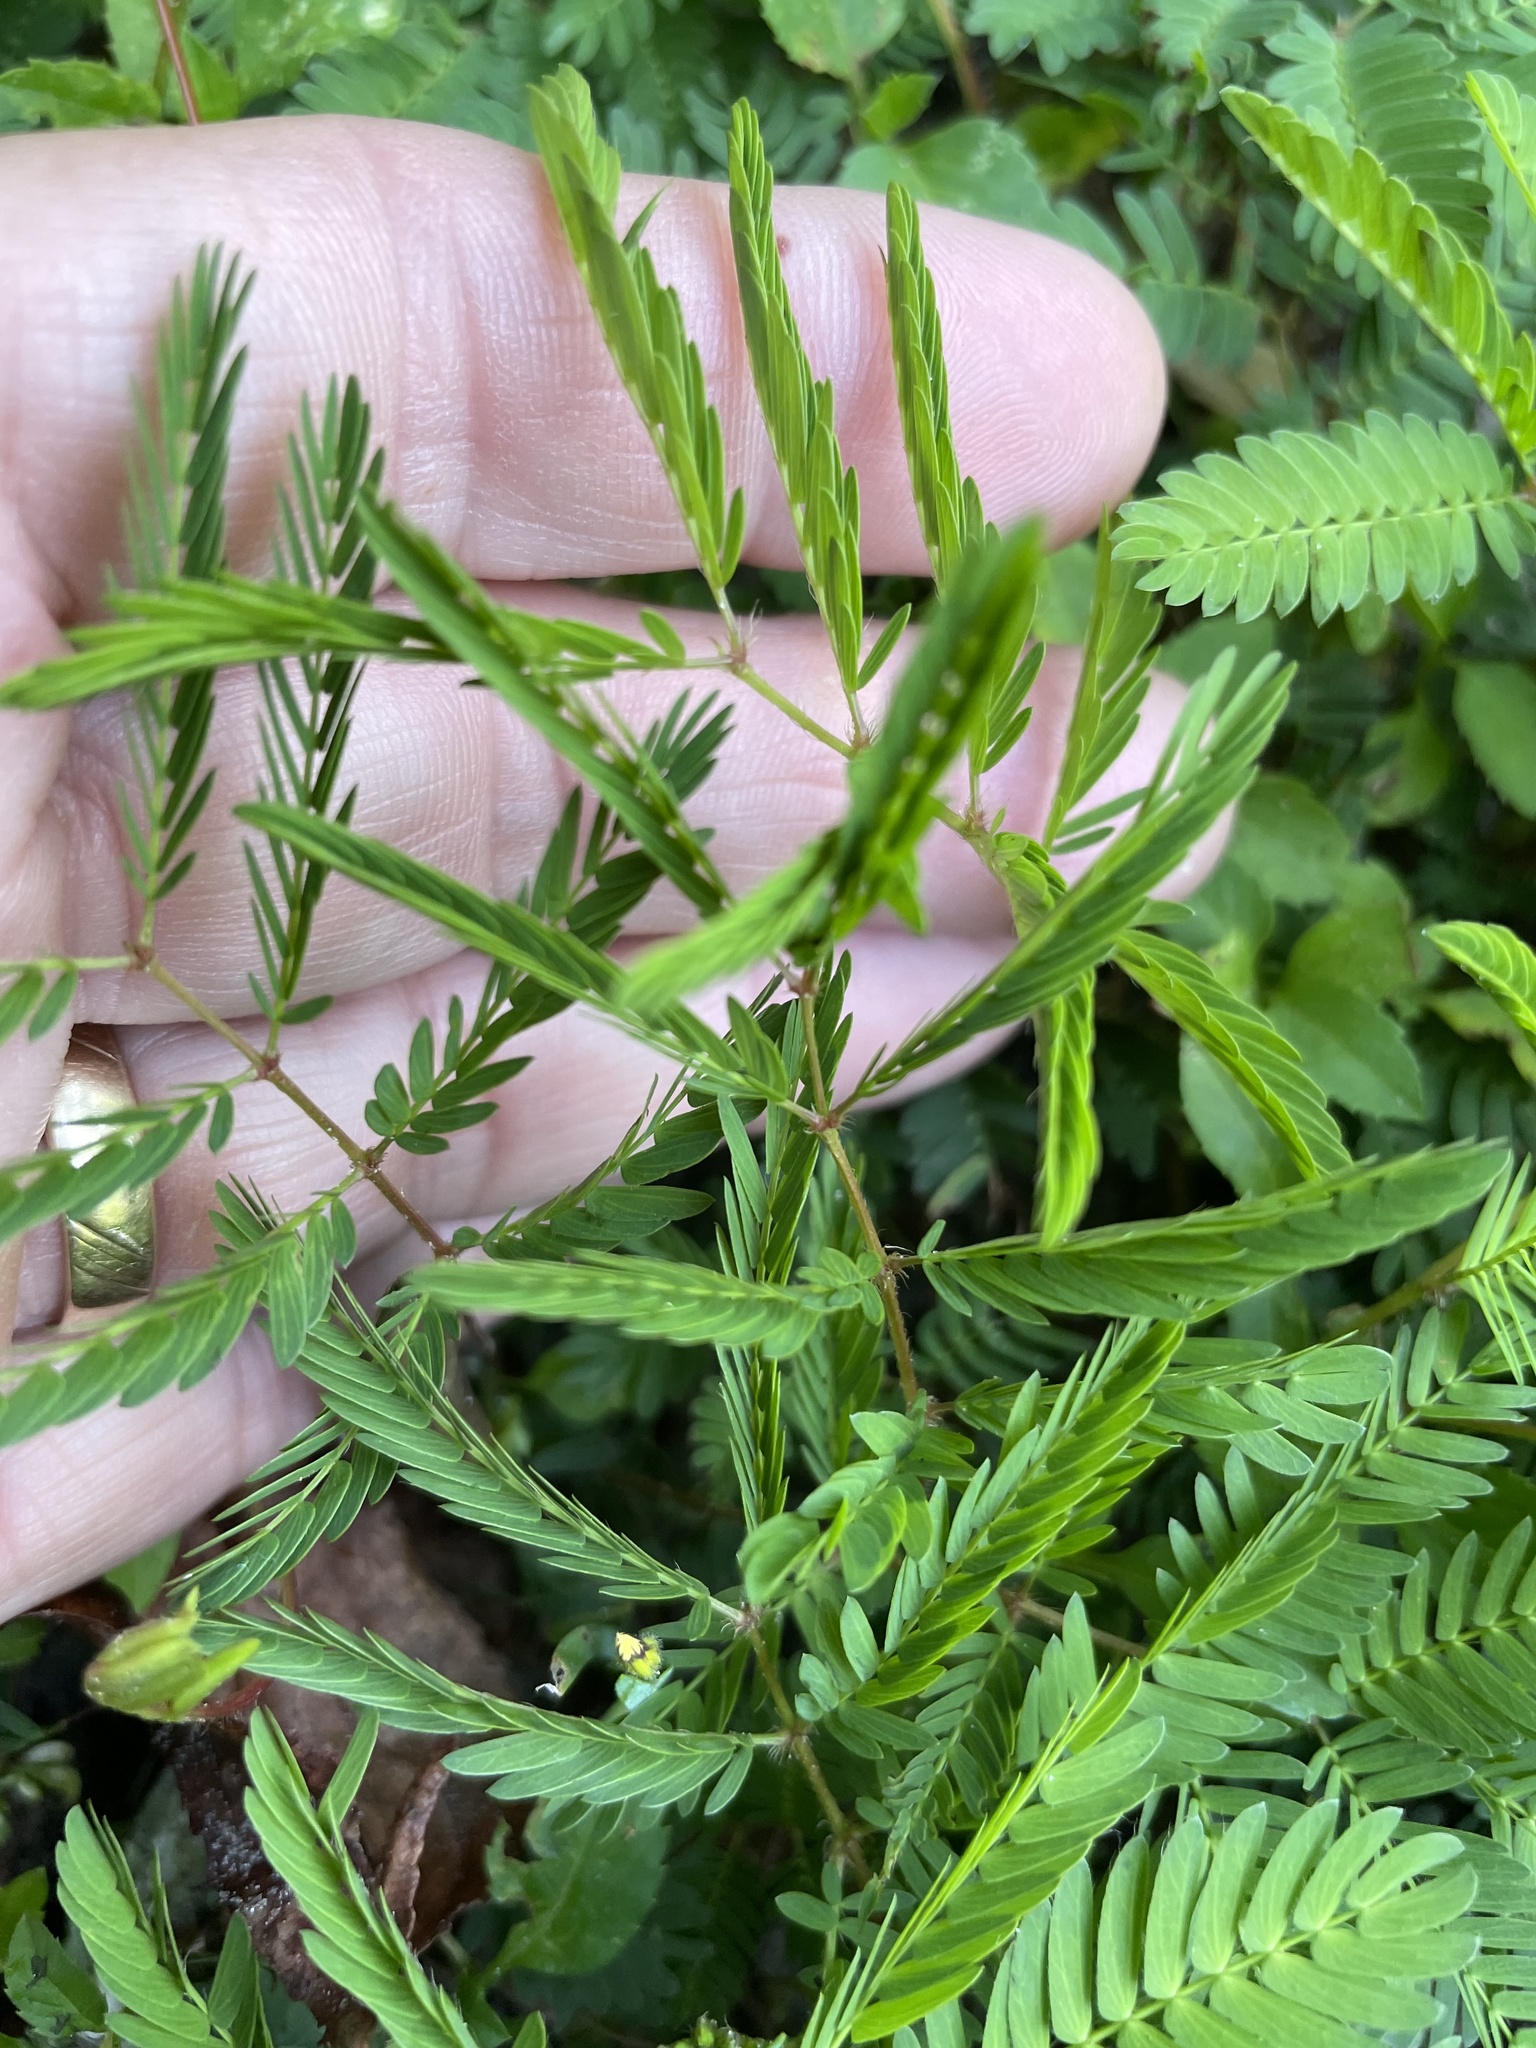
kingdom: Plantae
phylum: Tracheophyta
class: Magnoliopsida
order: Fabales
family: Fabaceae
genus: Mimosa
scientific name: Mimosa strigillosa
